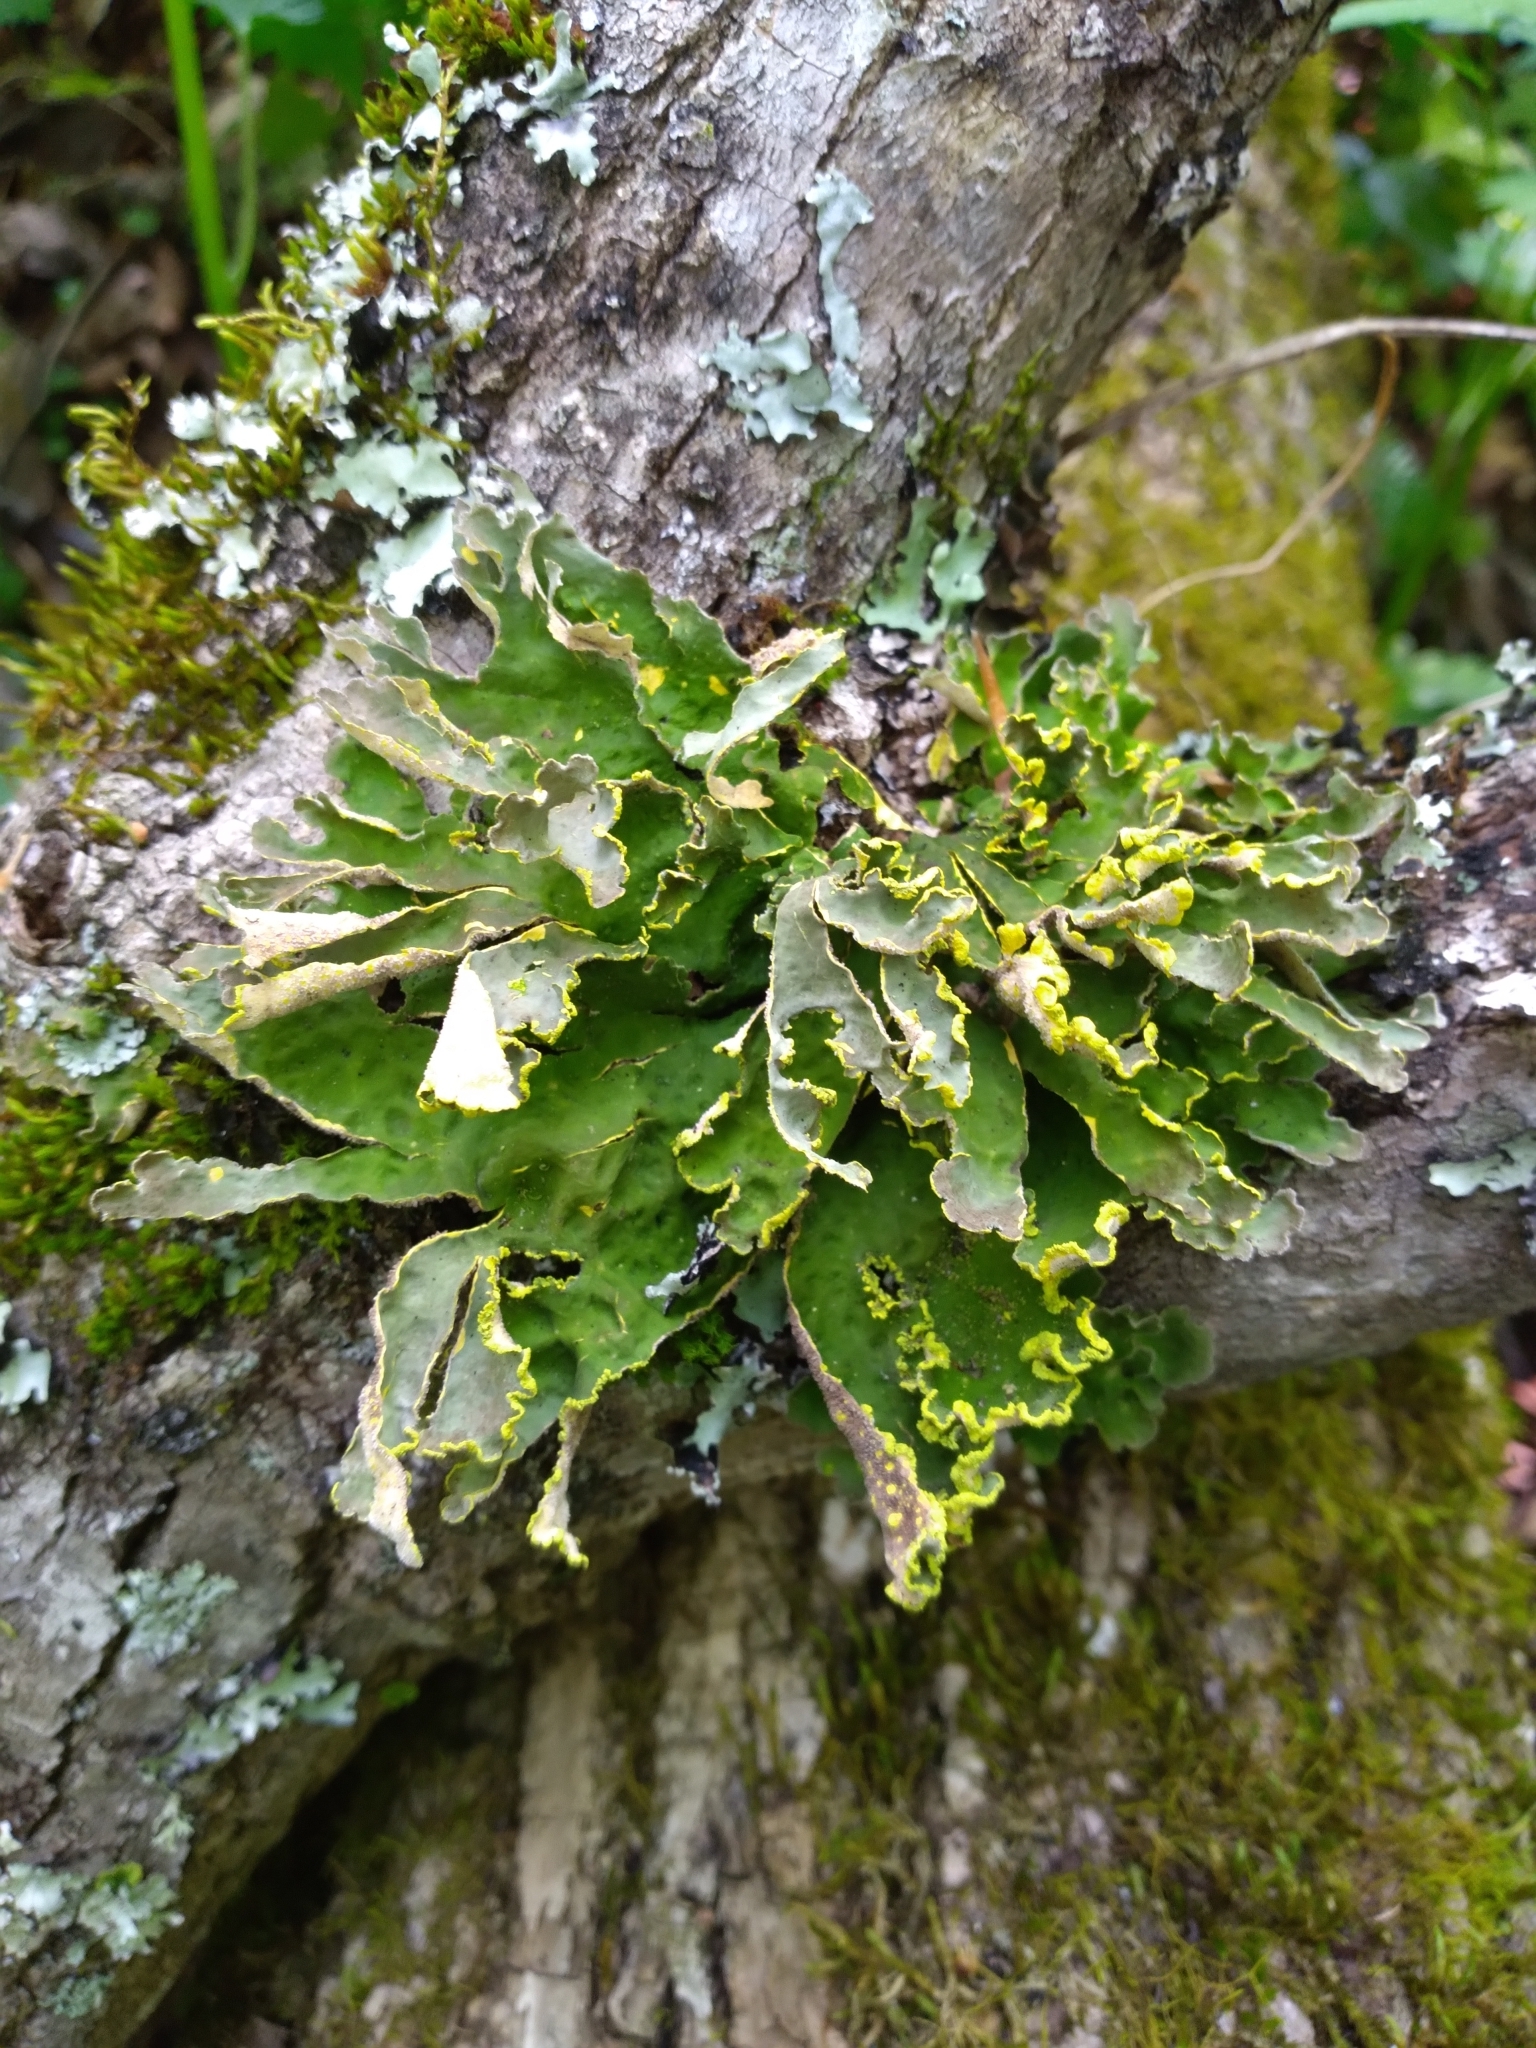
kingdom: Fungi
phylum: Ascomycota
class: Lecanoromycetes
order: Peltigerales
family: Lobariaceae
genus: Pseudocyphellaria
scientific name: Pseudocyphellaria aurata
